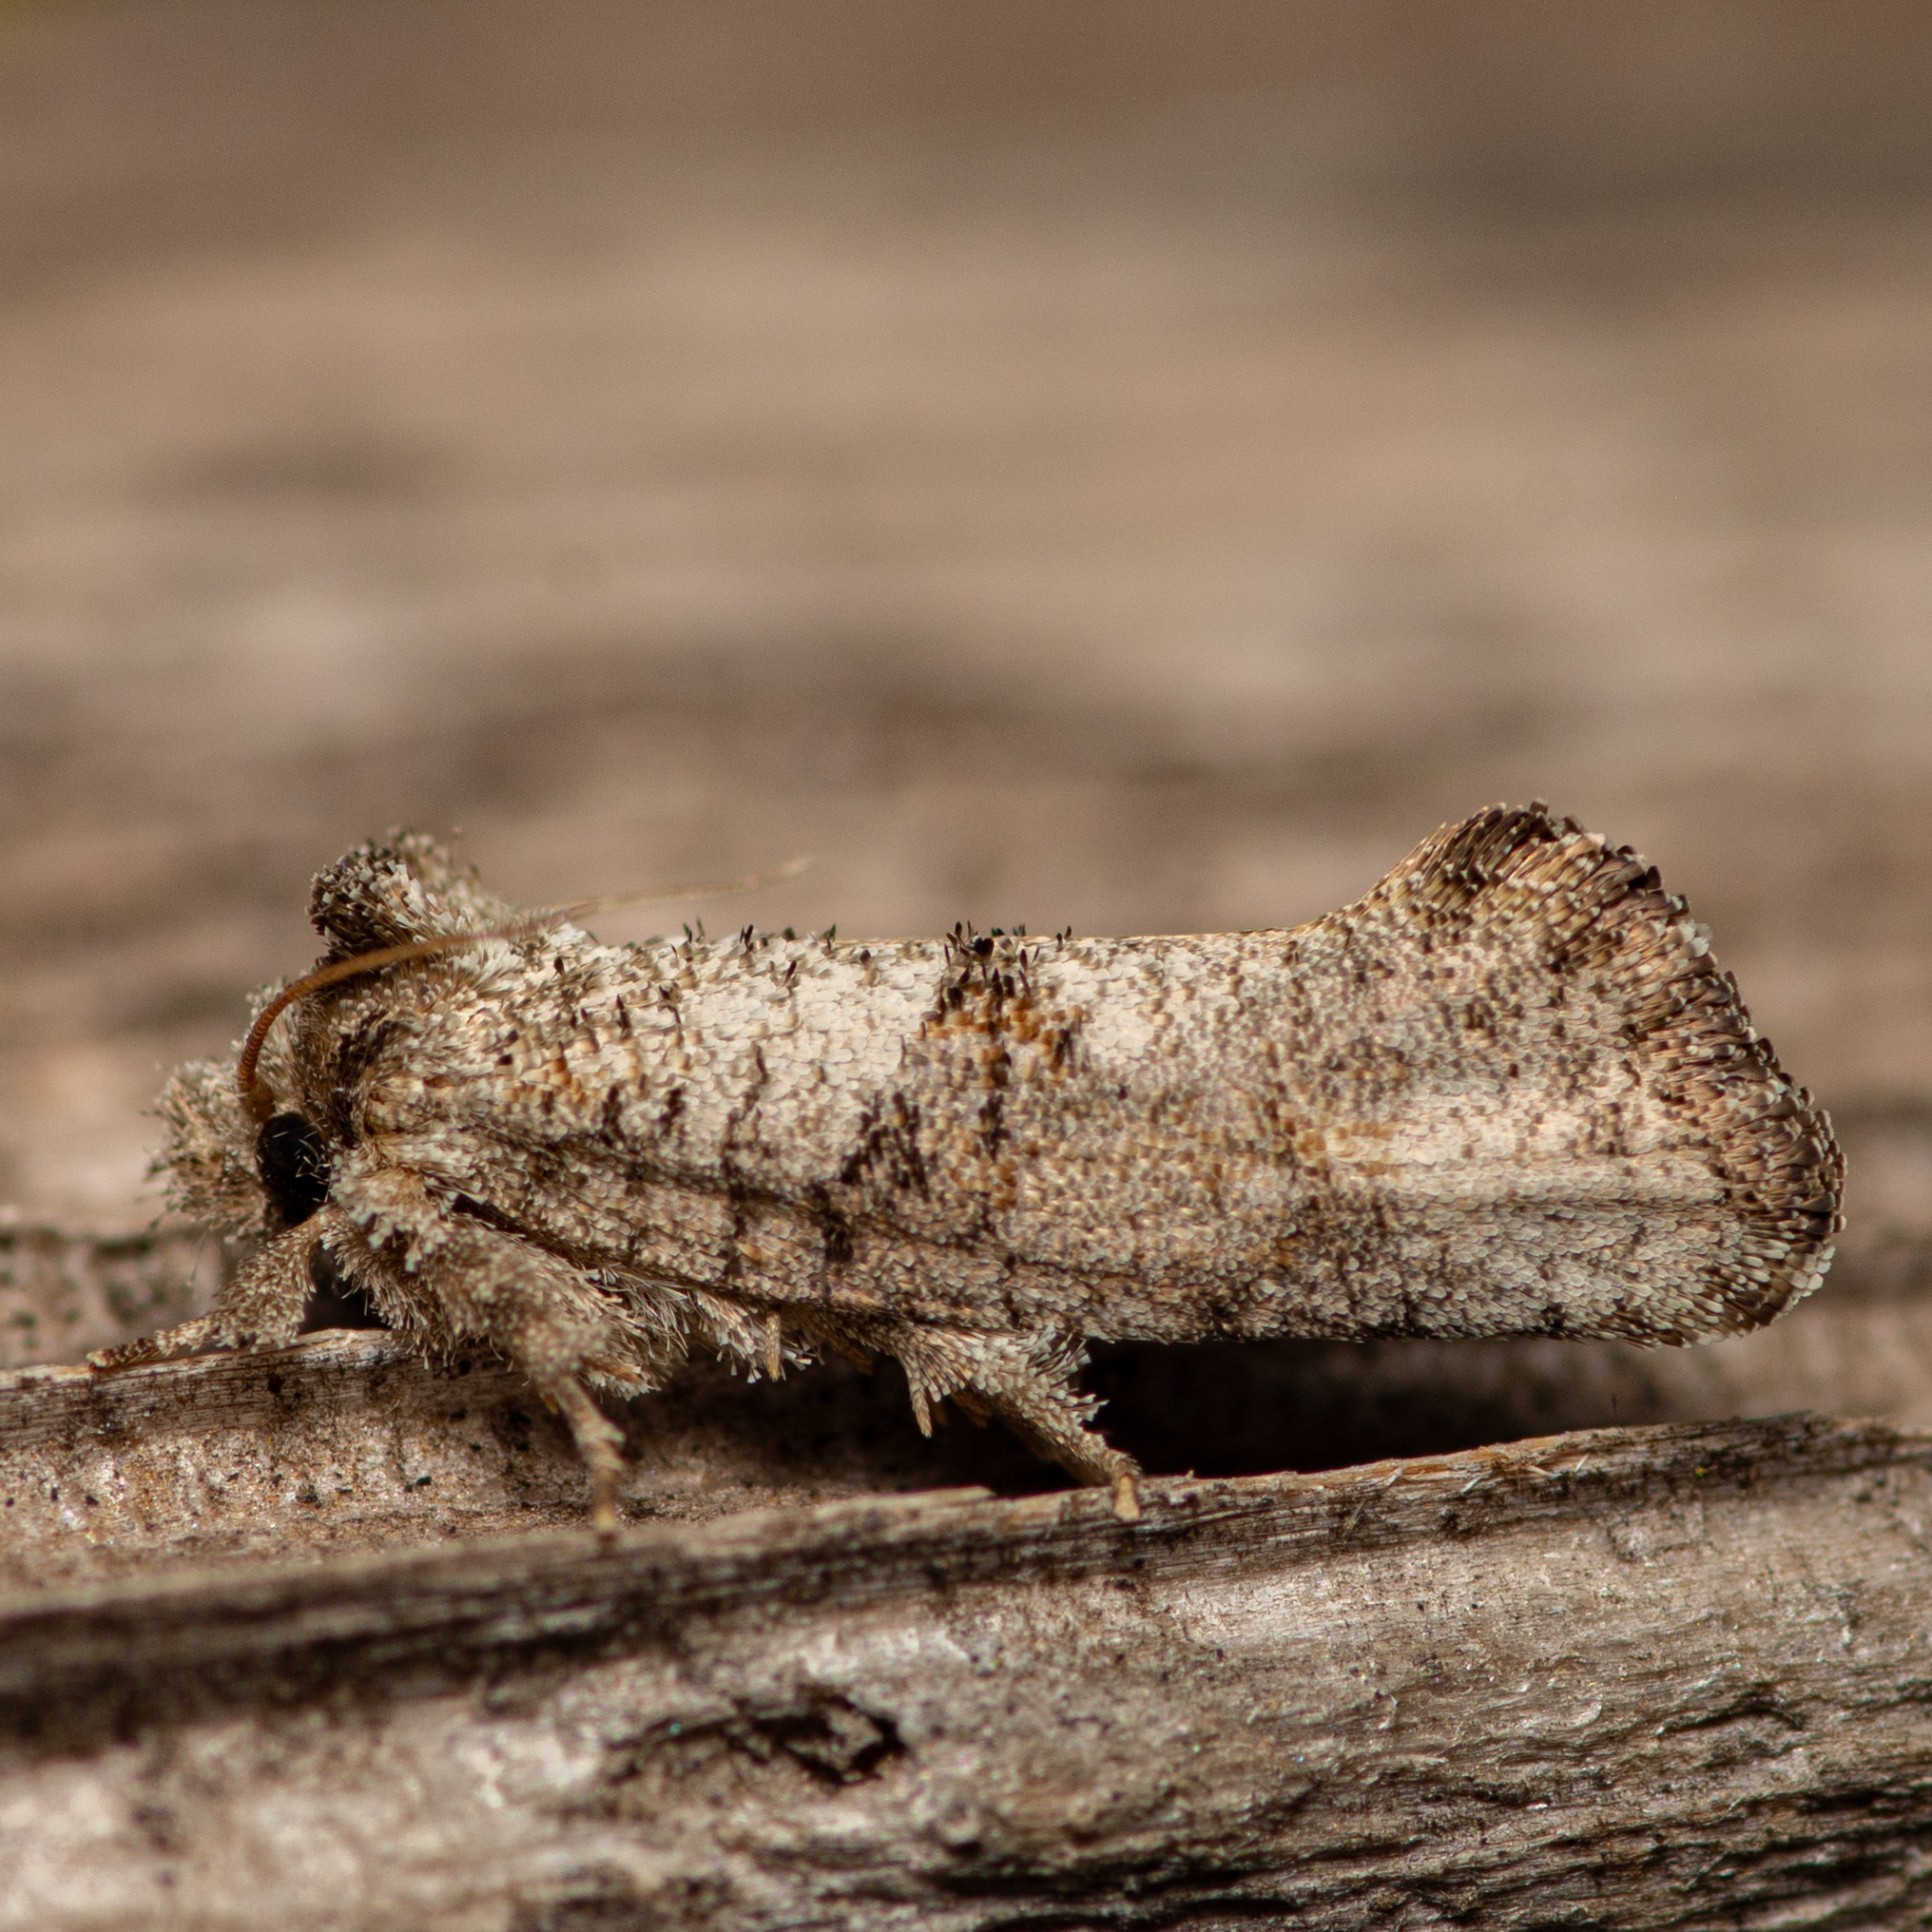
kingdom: Animalia
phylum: Arthropoda
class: Insecta
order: Lepidoptera
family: Tineidae
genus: Acrolophus
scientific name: Acrolophus piger
